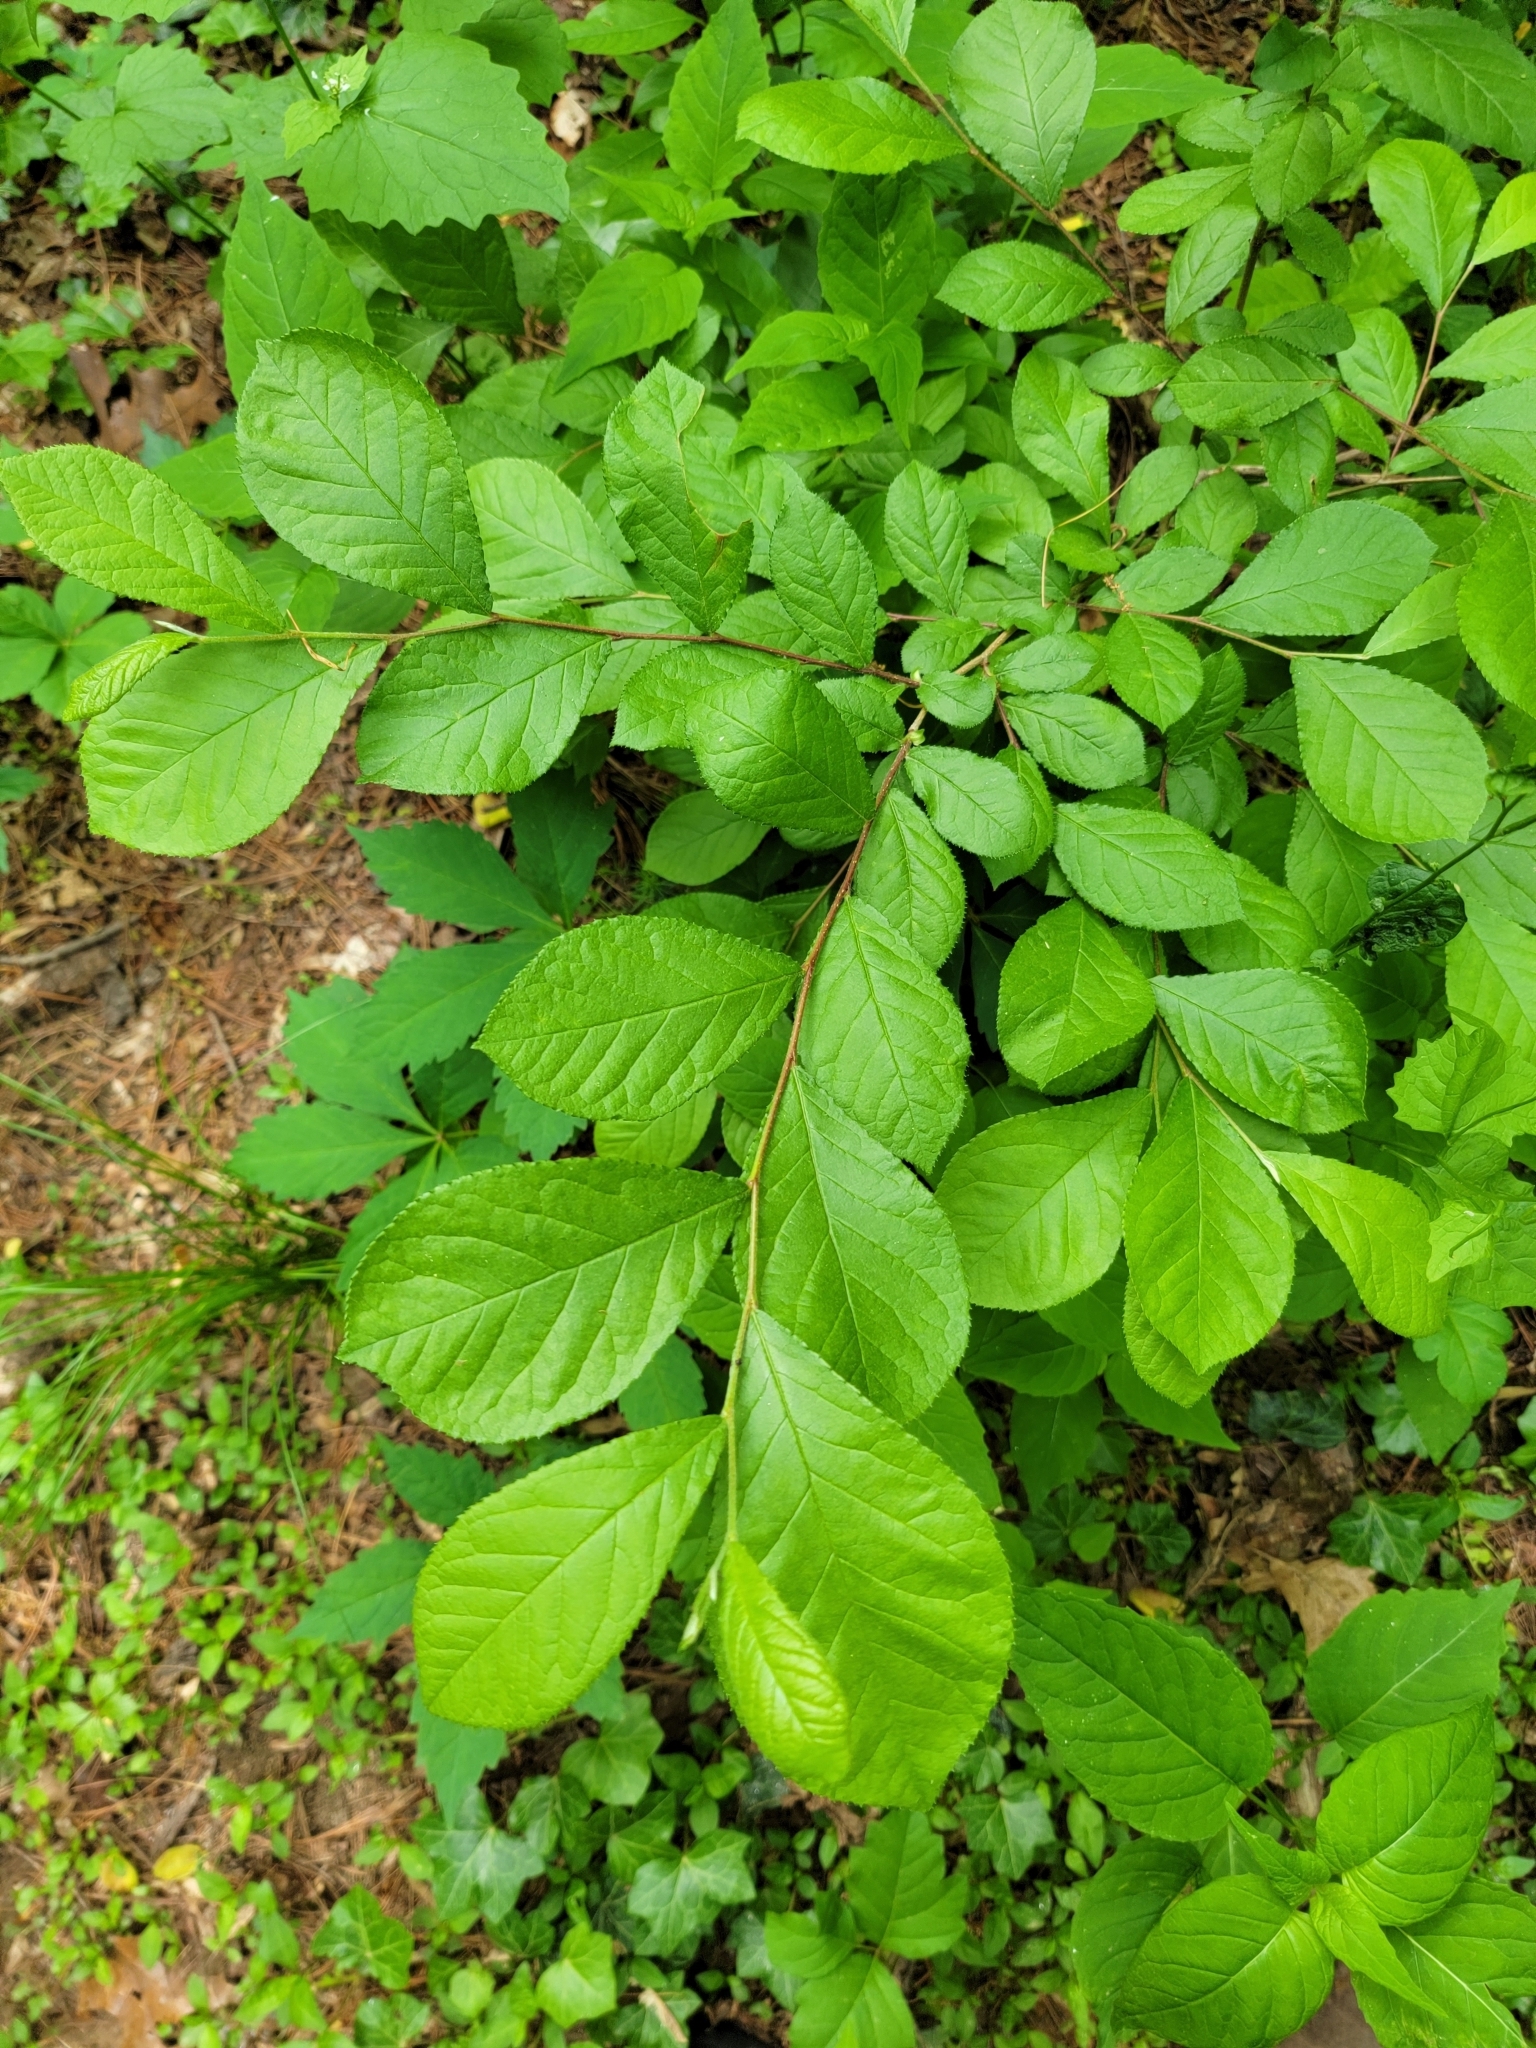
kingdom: Plantae
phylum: Tracheophyta
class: Magnoliopsida
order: Laurales
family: Lauraceae
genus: Lindera
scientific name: Lindera benzoin
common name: Spicebush
